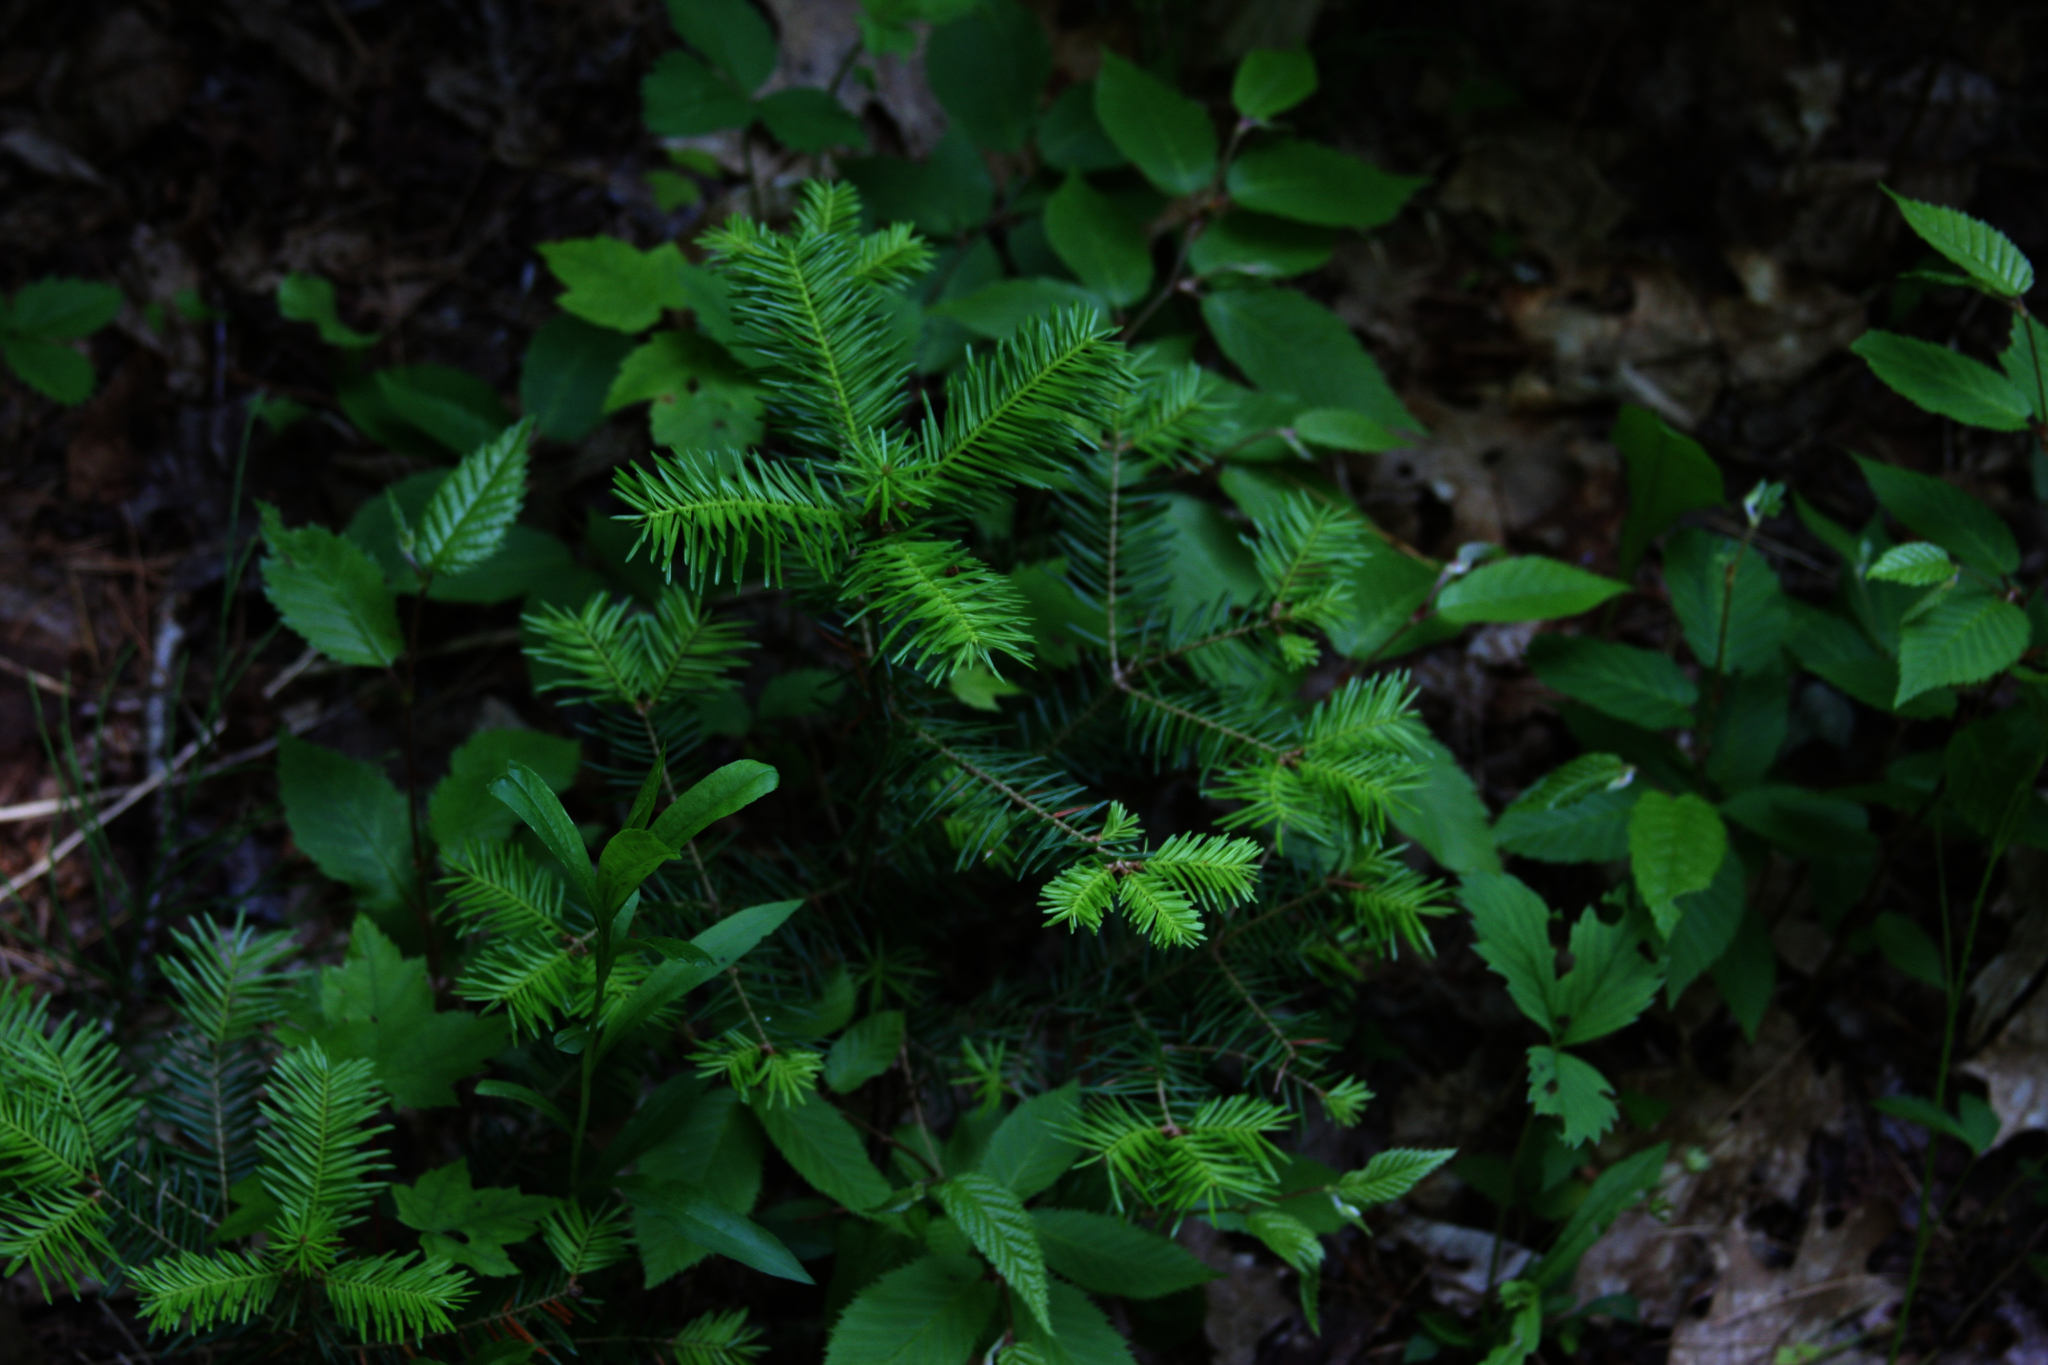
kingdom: Plantae
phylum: Tracheophyta
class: Pinopsida
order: Pinales
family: Pinaceae
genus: Abies
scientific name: Abies balsamea
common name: Balsam fir
